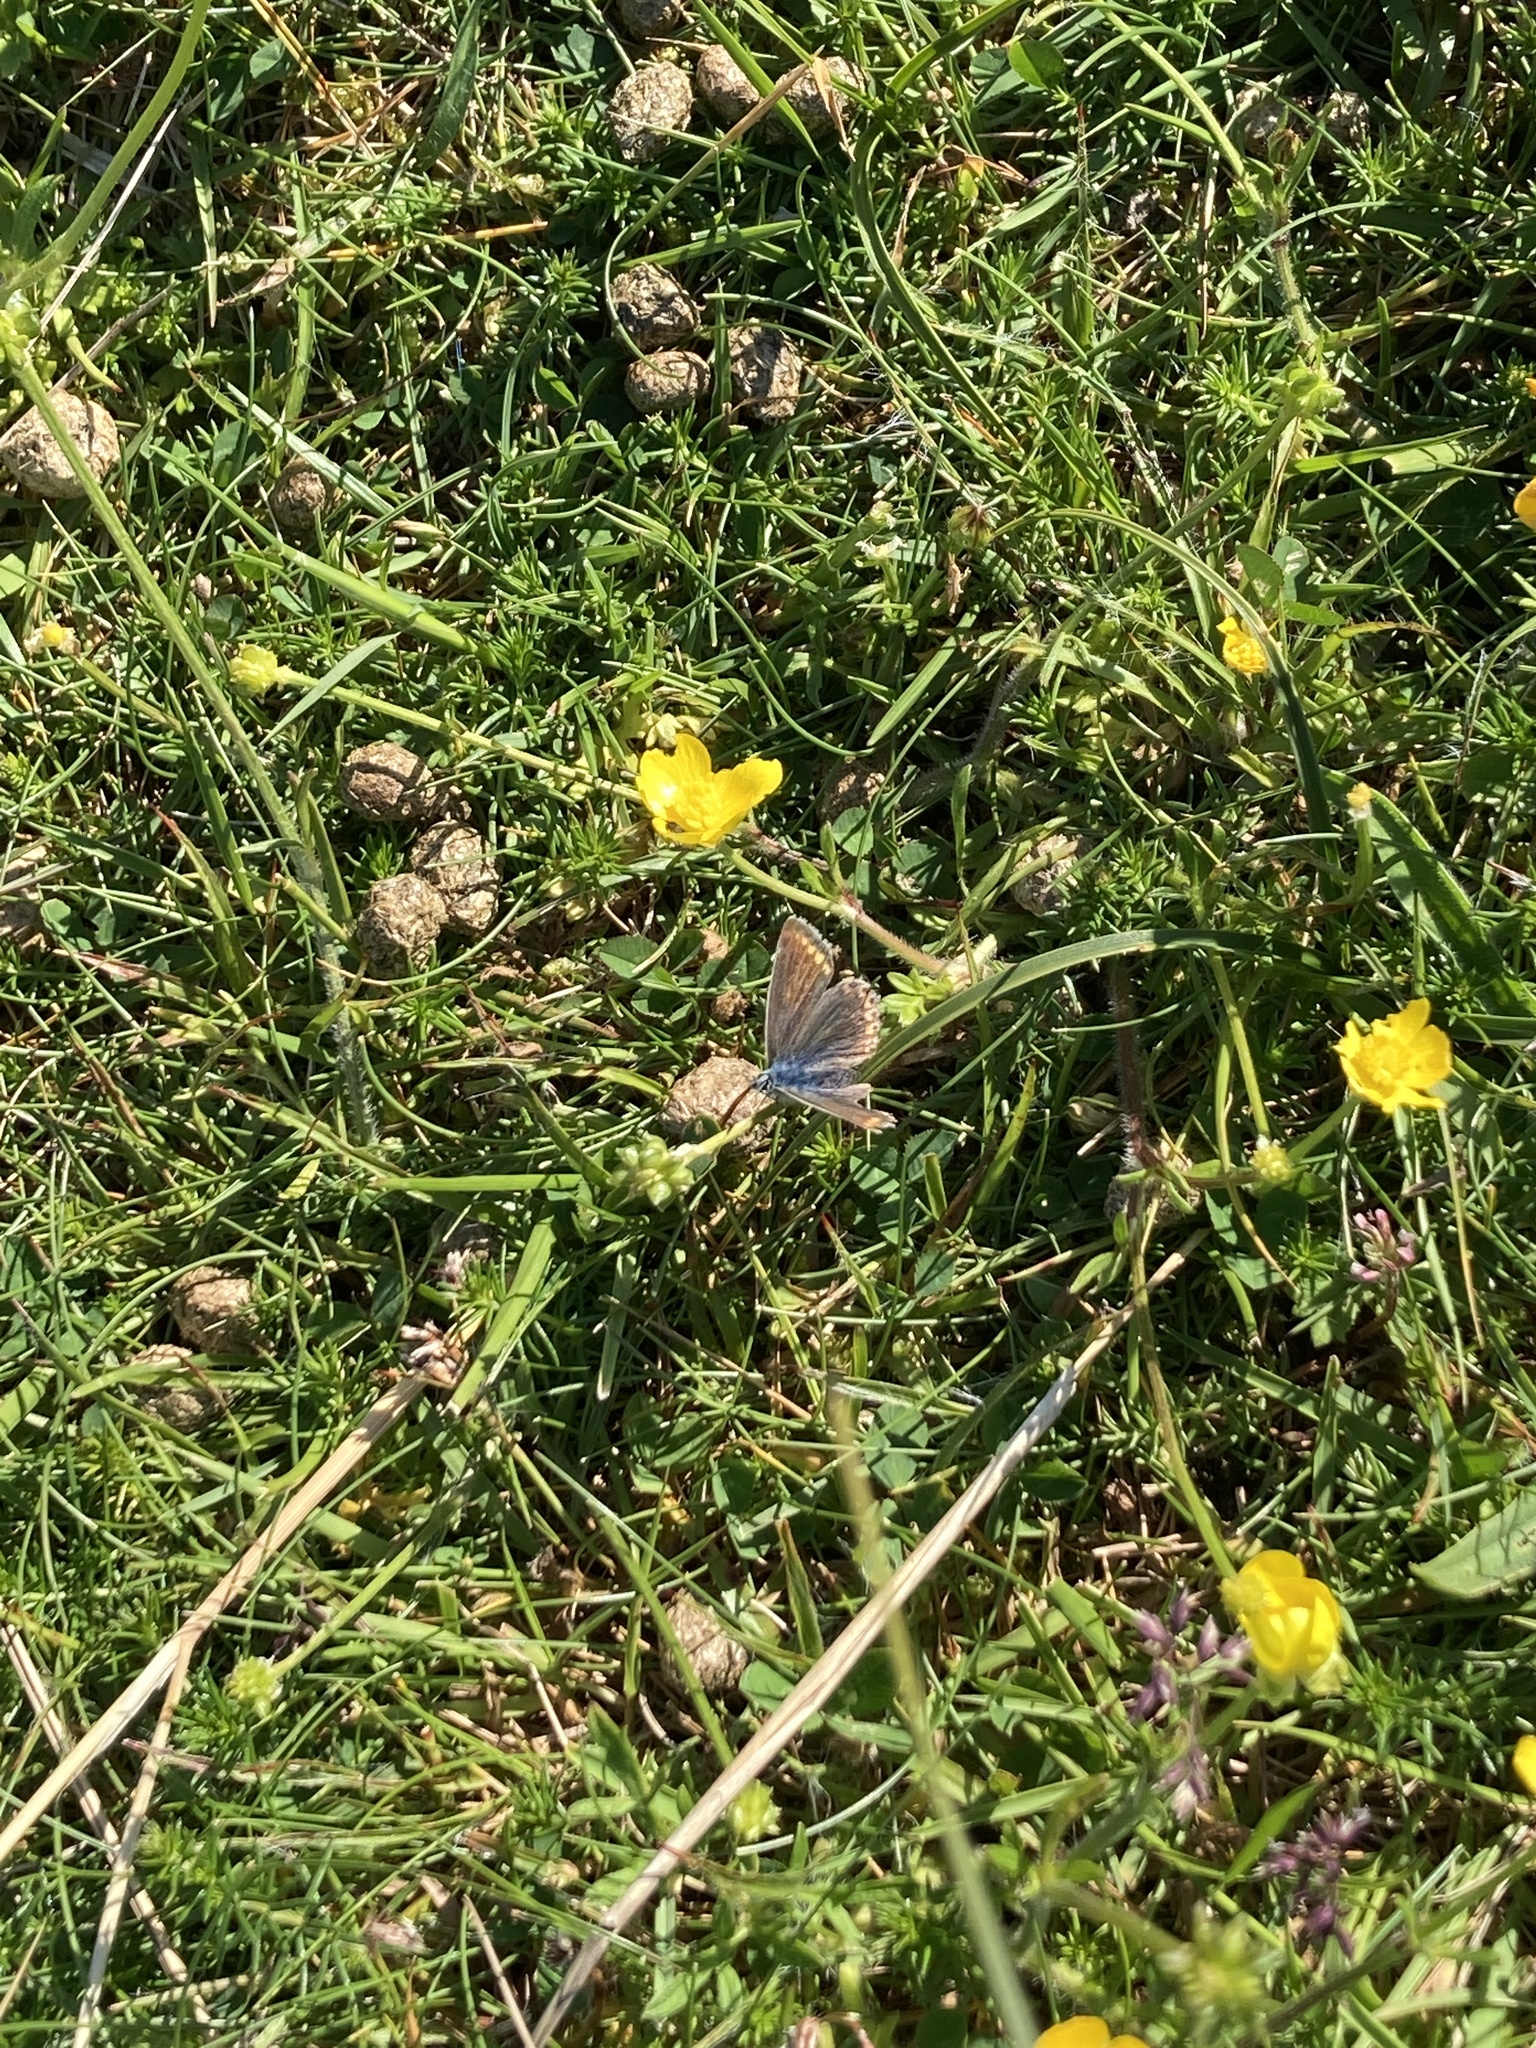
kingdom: Animalia
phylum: Arthropoda
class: Insecta
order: Lepidoptera
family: Lycaenidae
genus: Polyommatus
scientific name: Polyommatus icarus
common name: Common blue
